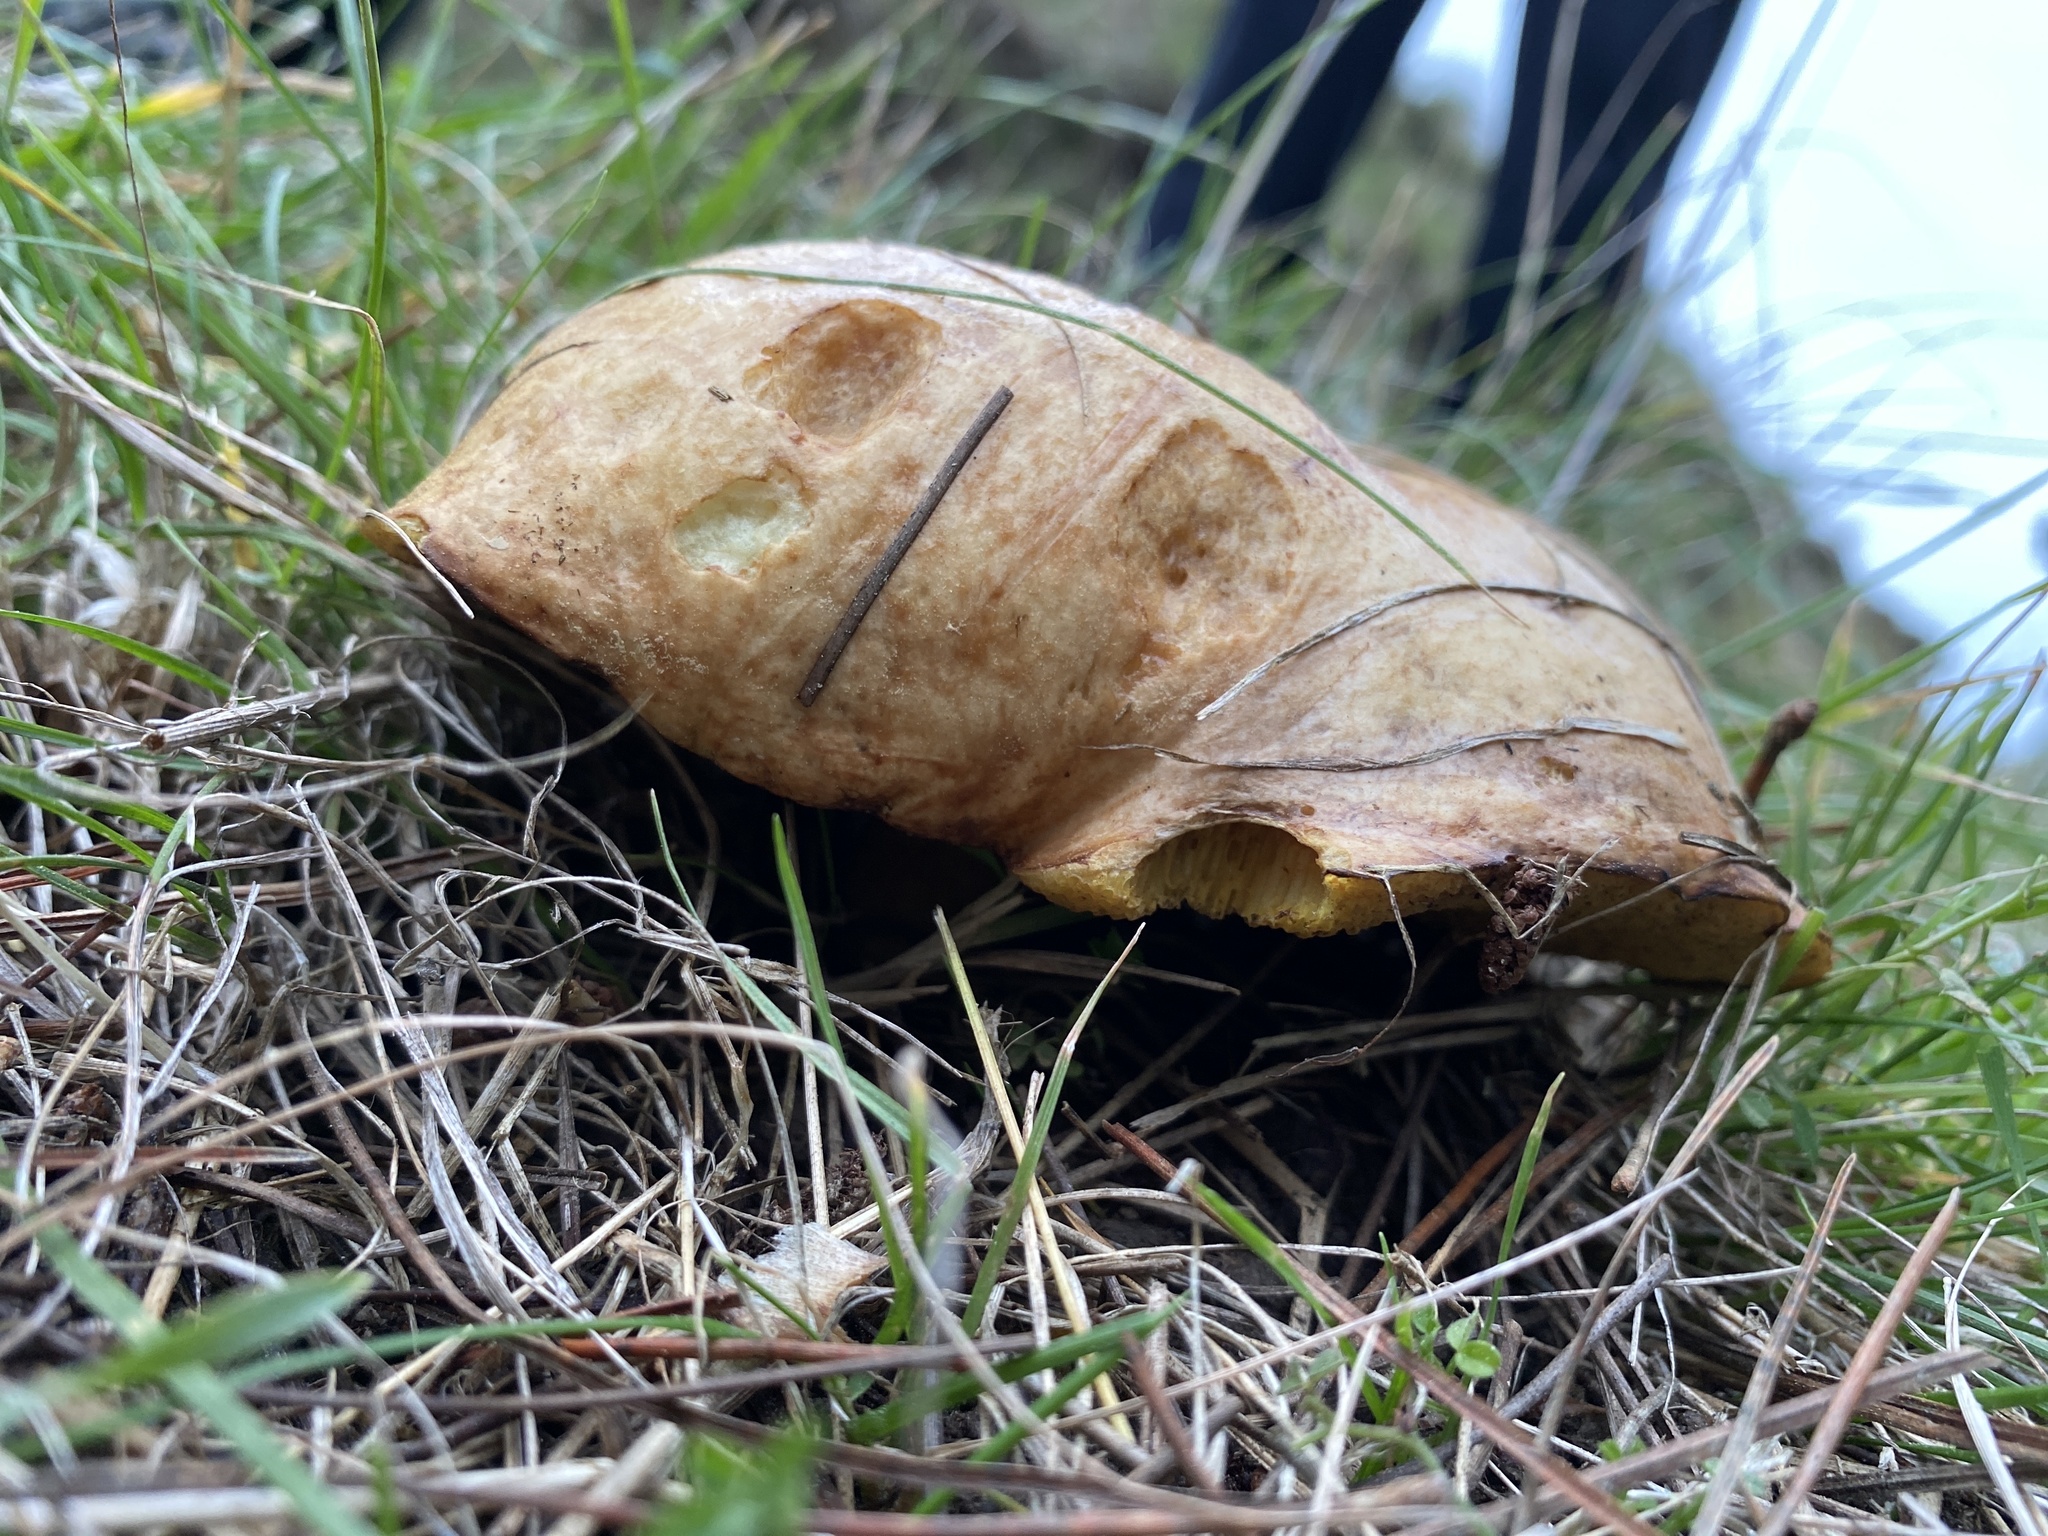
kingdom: Animalia
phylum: Chordata
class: Aves
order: Columbiformes
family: Columbidae
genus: Hemiphaga
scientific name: Hemiphaga novaeseelandiae
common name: New zealand pigeon
